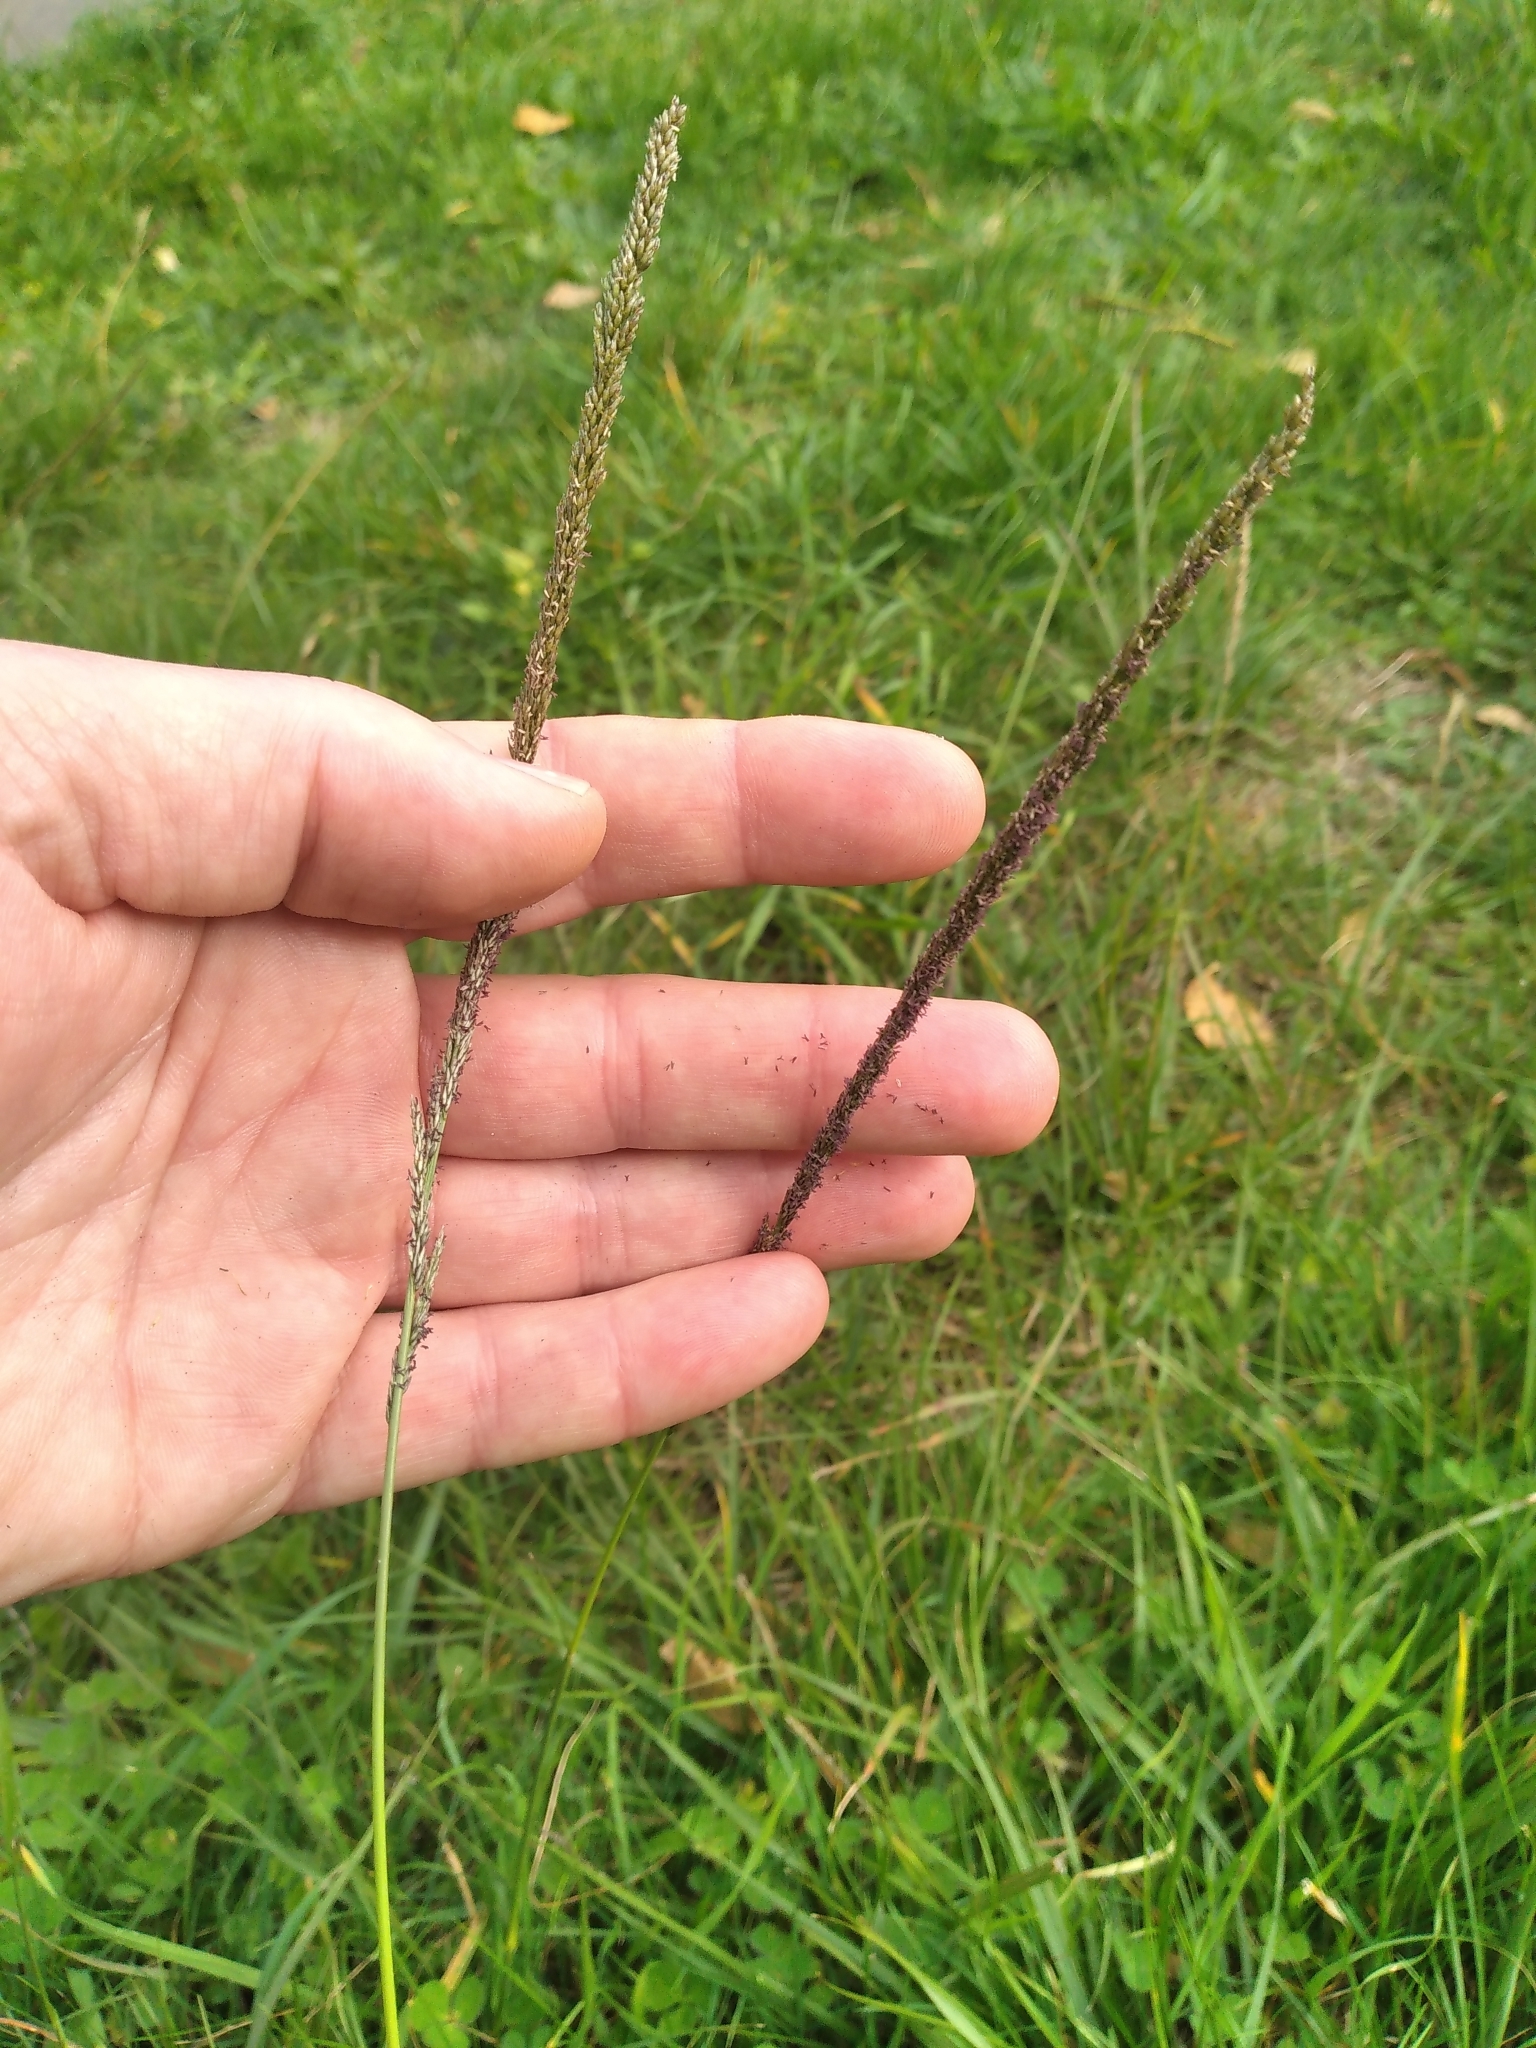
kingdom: Plantae
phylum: Tracheophyta
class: Liliopsida
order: Poales
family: Poaceae
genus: Sporobolus
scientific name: Sporobolus africanus
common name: African dropseed
